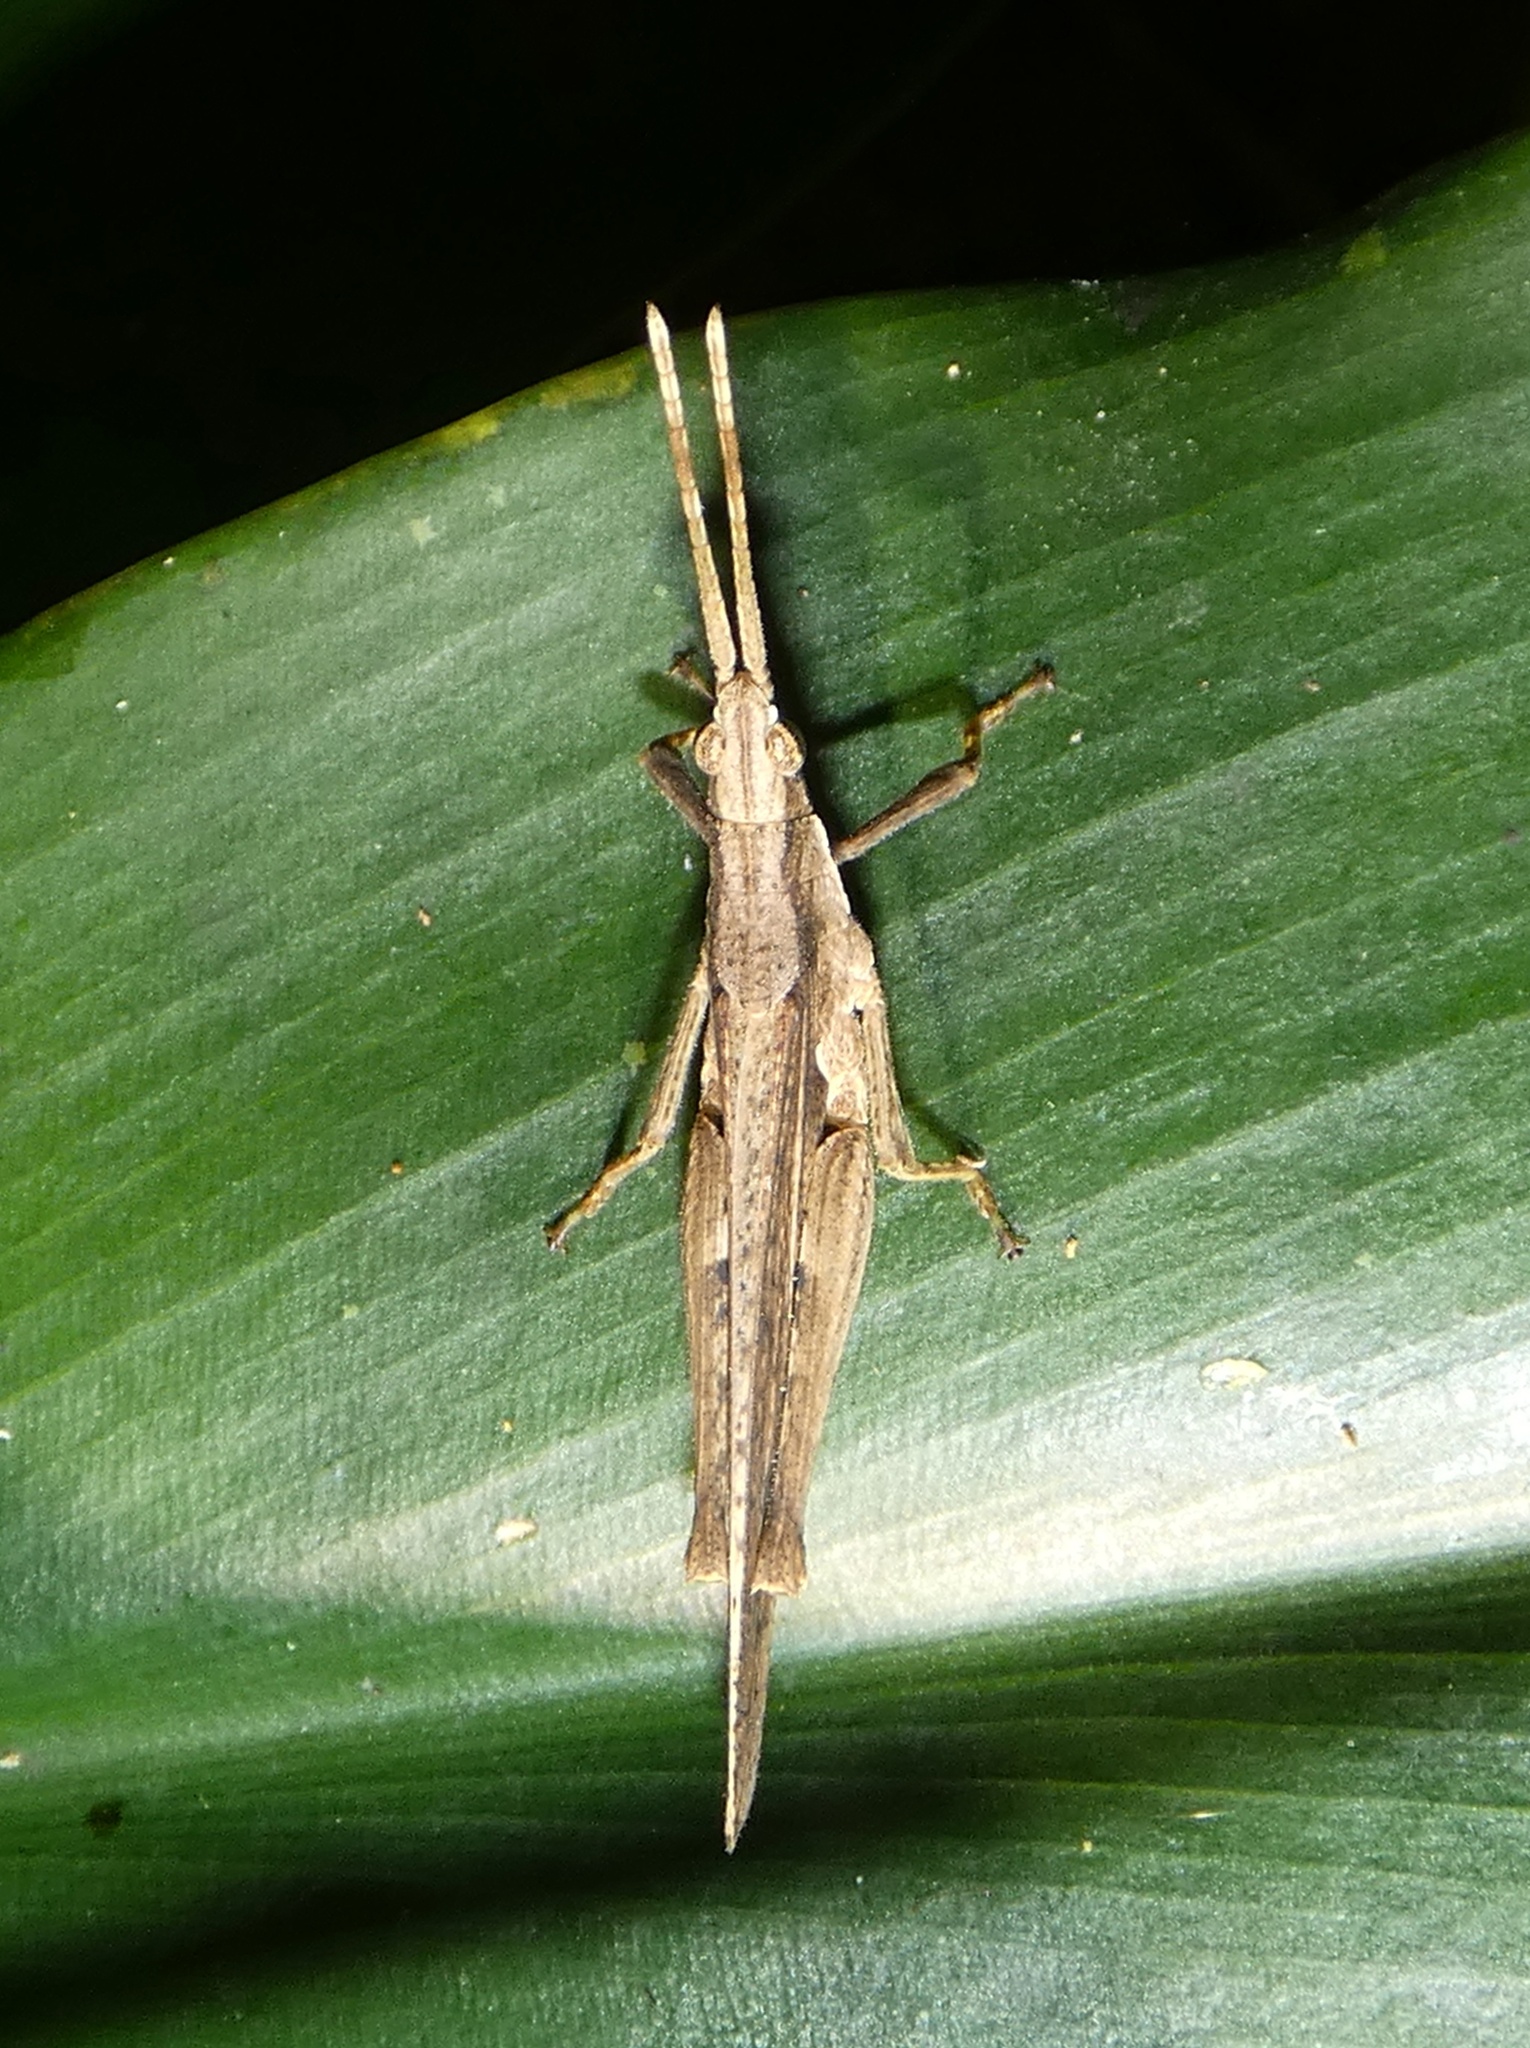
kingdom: Animalia
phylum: Arthropoda
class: Insecta
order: Orthoptera
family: Pyrgomorphidae
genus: Desmoptera
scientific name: Desmoptera truncatipennis
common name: Large forest pyrgomorph
